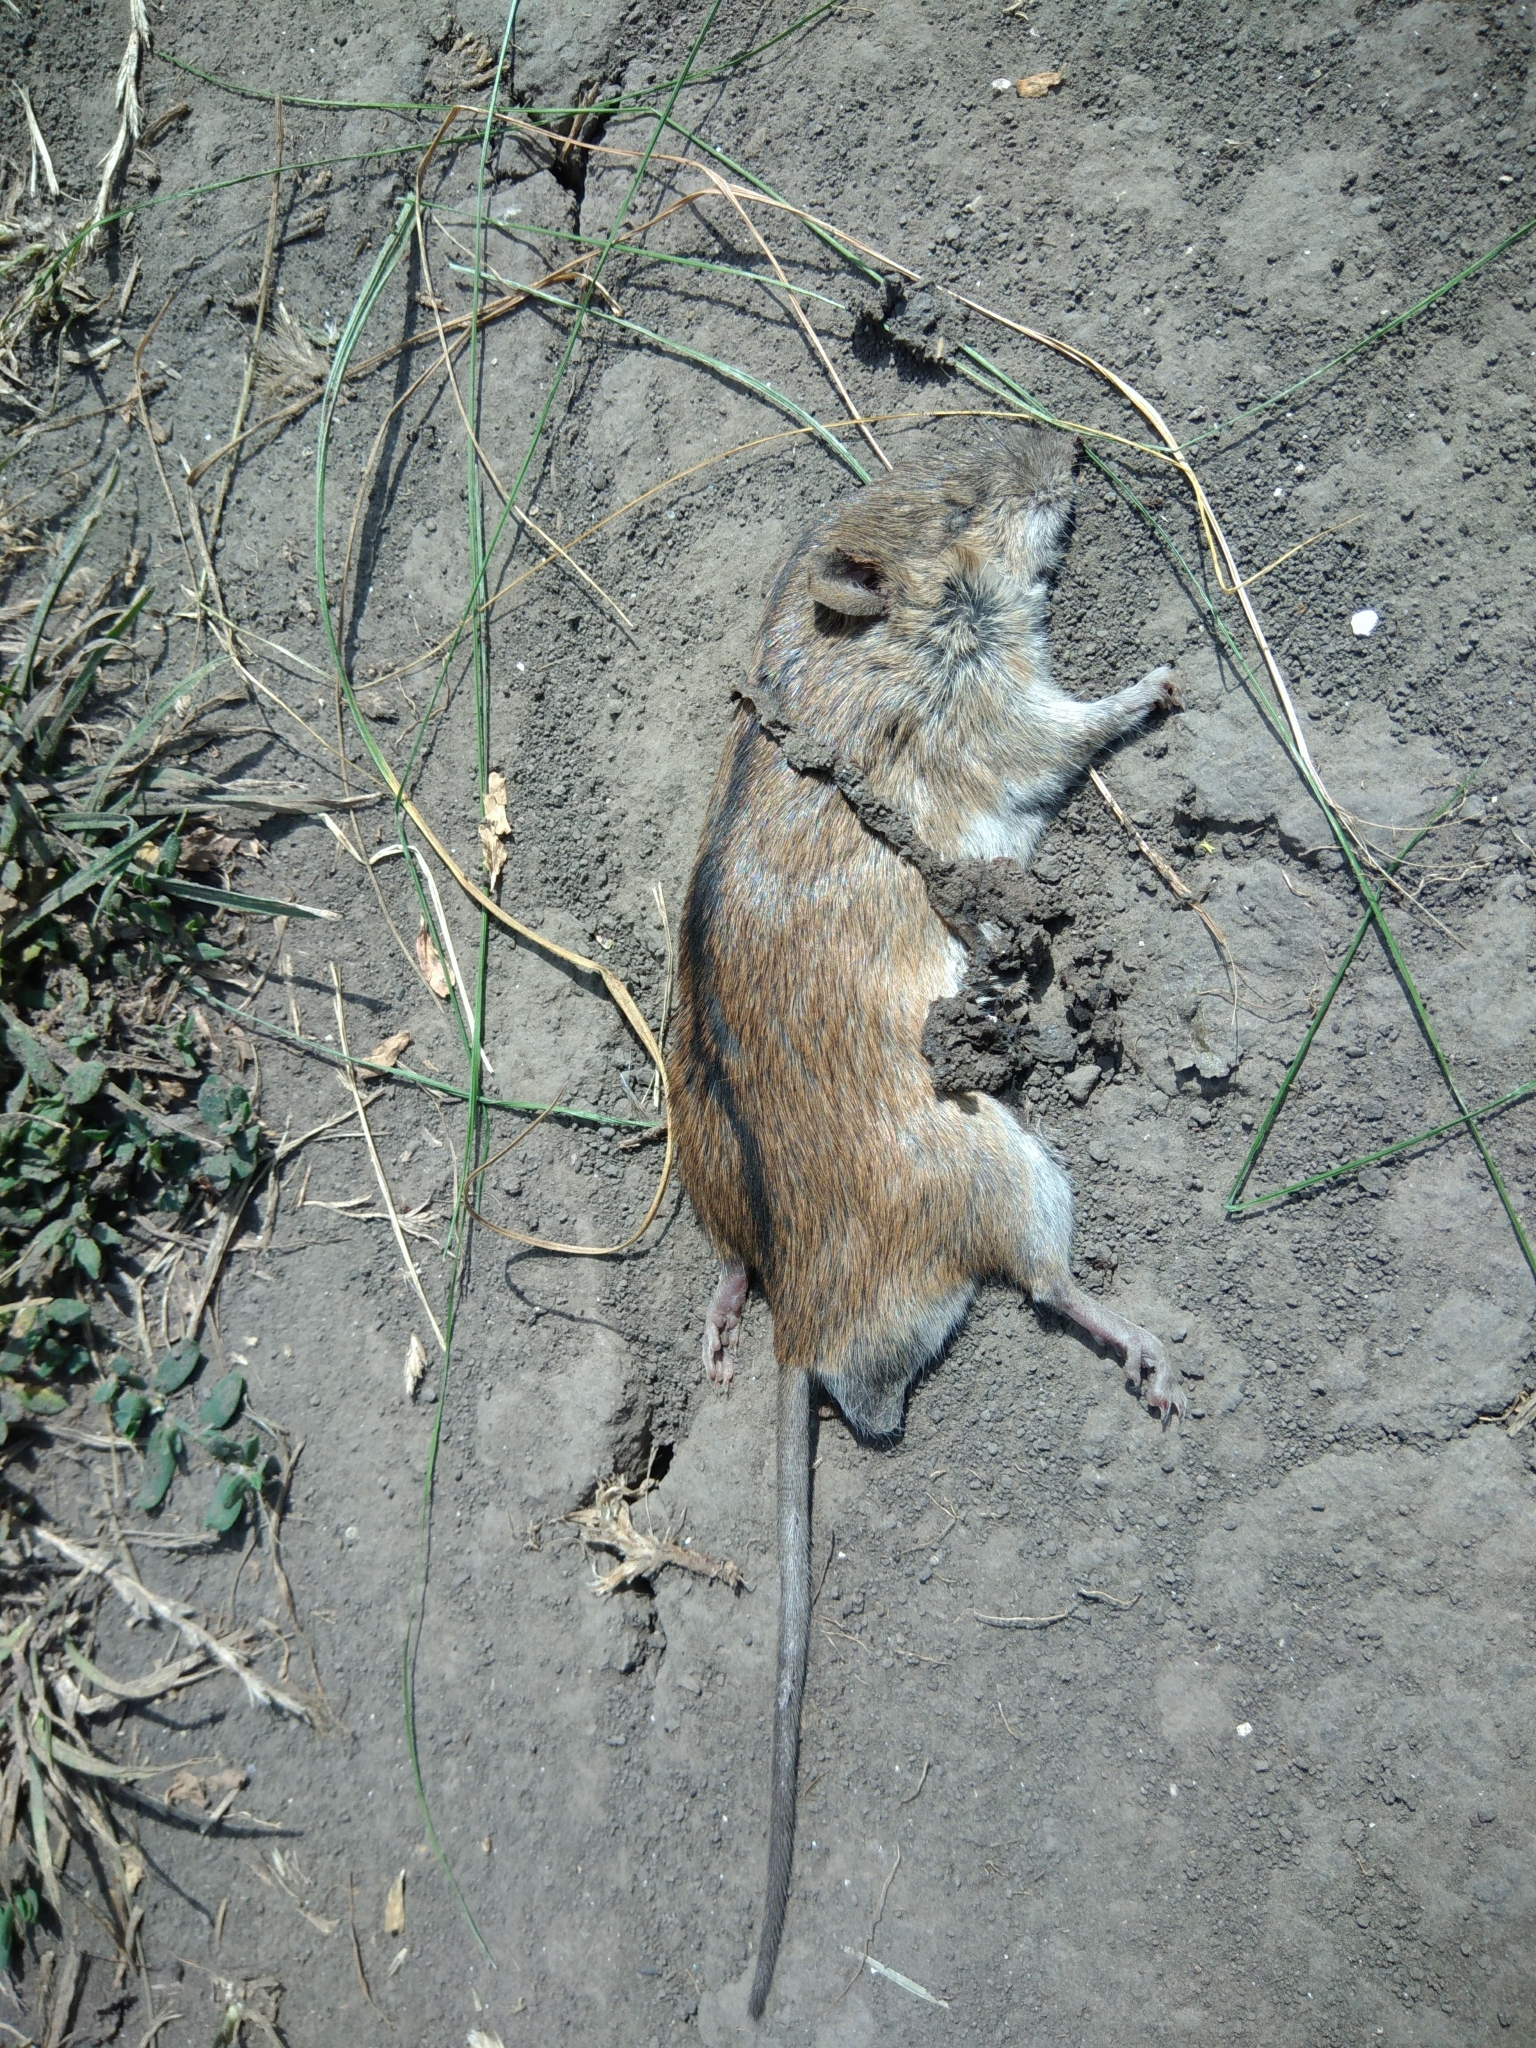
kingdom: Animalia
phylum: Chordata
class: Mammalia
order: Rodentia
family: Muridae
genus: Apodemus
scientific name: Apodemus agrarius
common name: Striped field mouse
